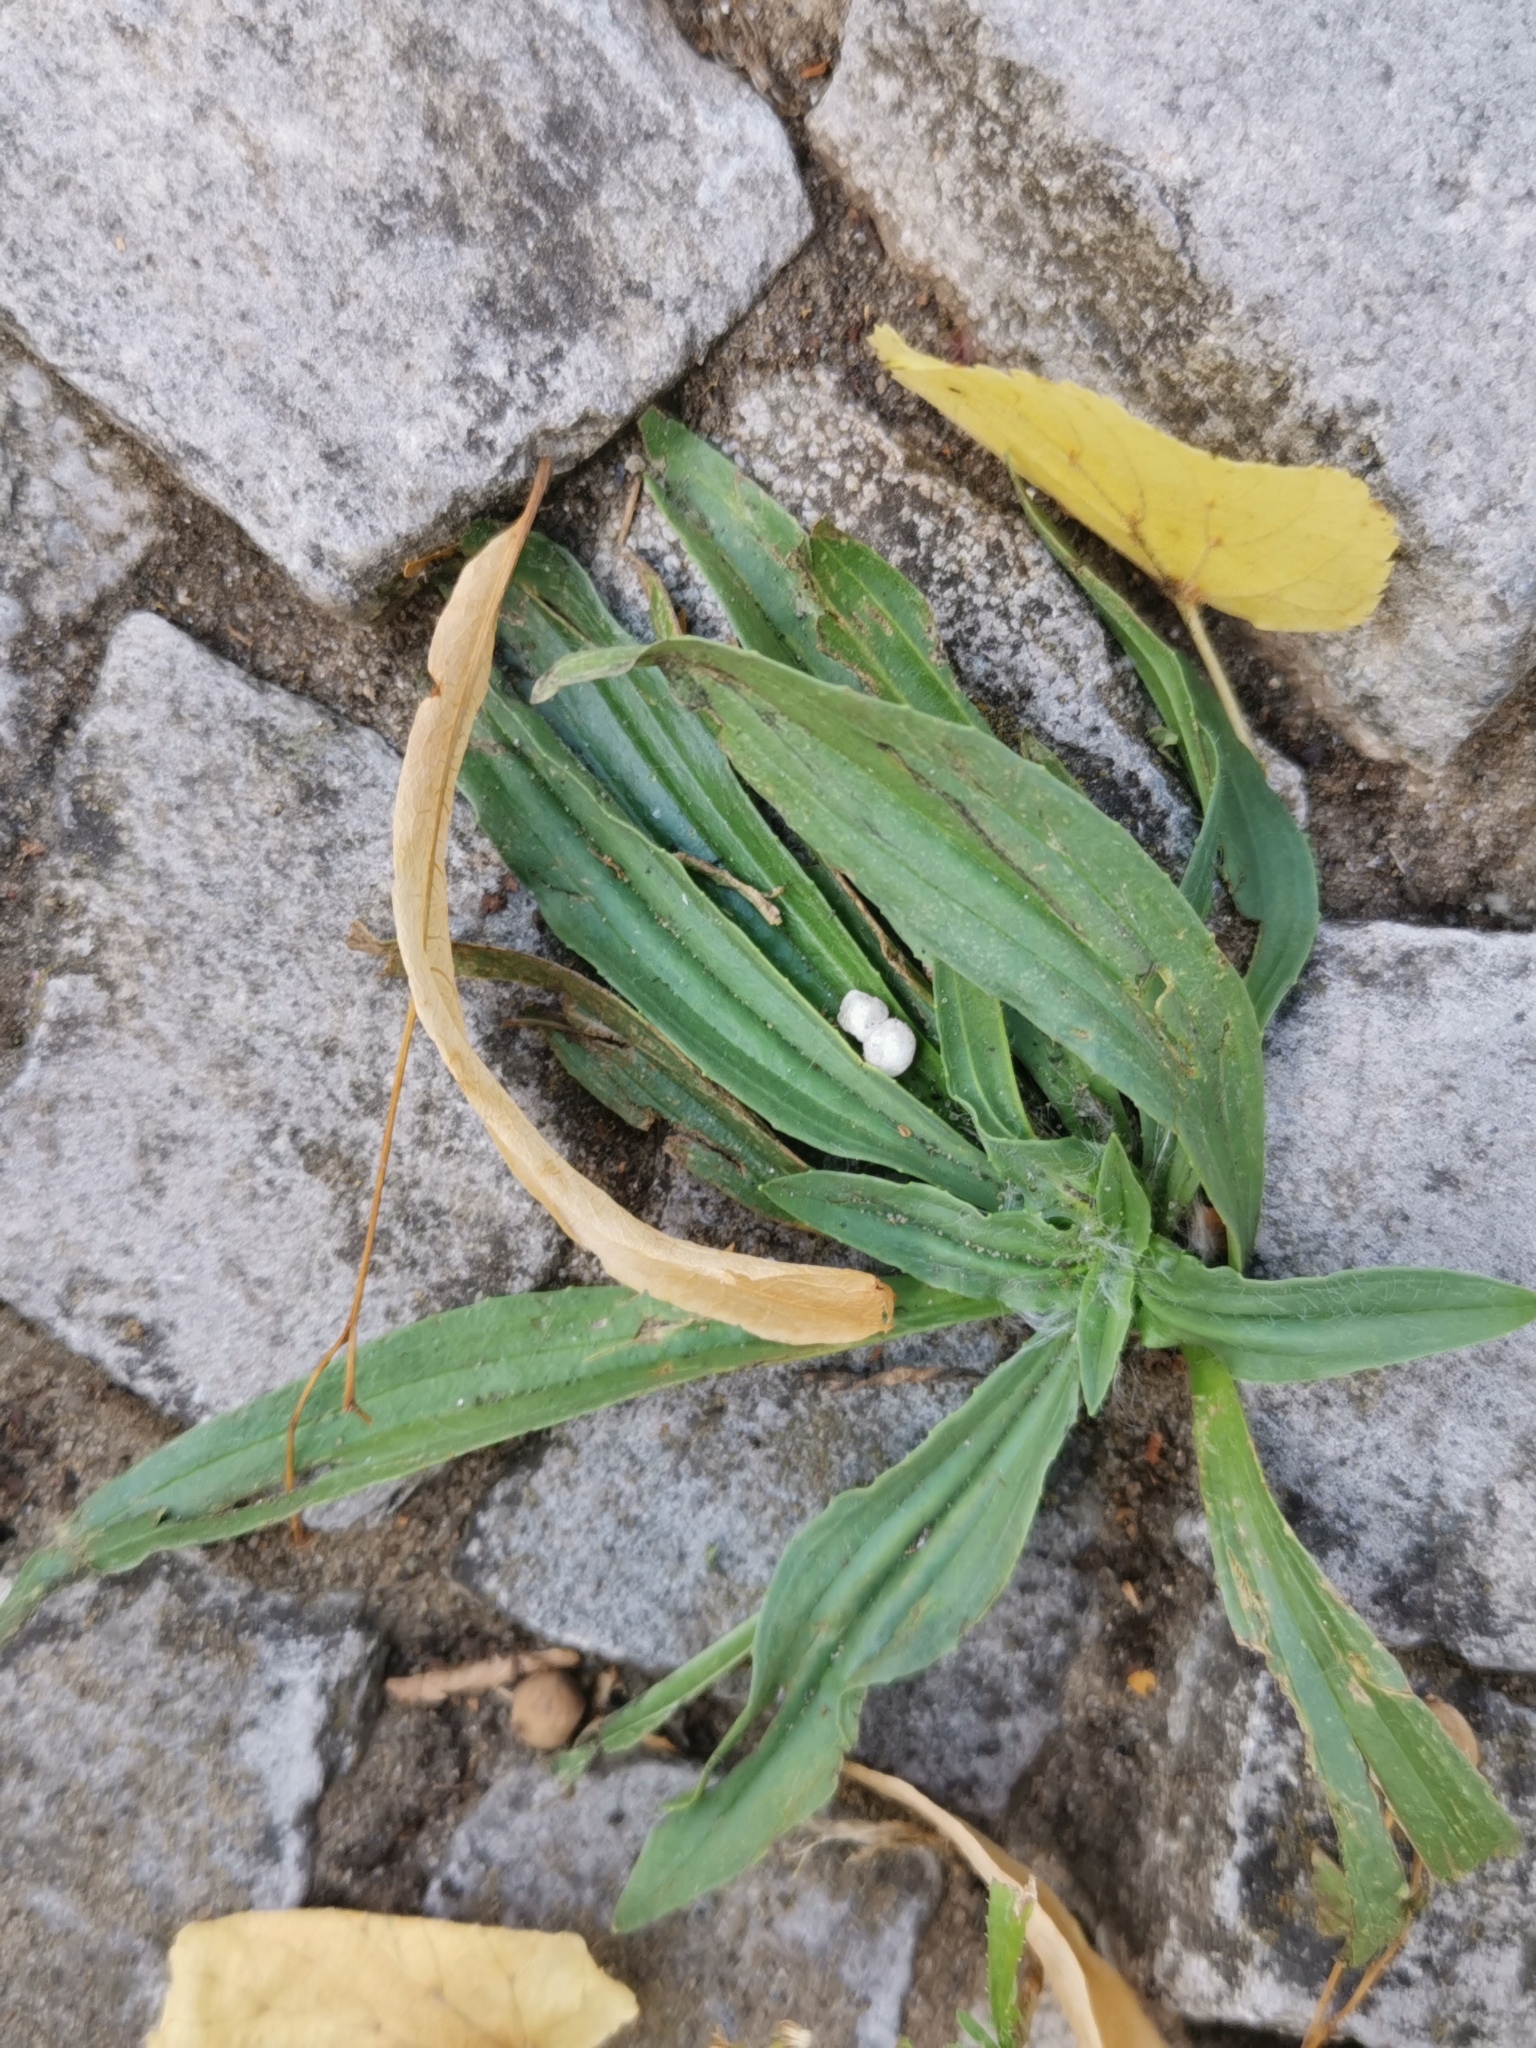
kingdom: Plantae
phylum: Tracheophyta
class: Magnoliopsida
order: Lamiales
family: Plantaginaceae
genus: Plantago
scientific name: Plantago lanceolata
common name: Ribwort plantain
